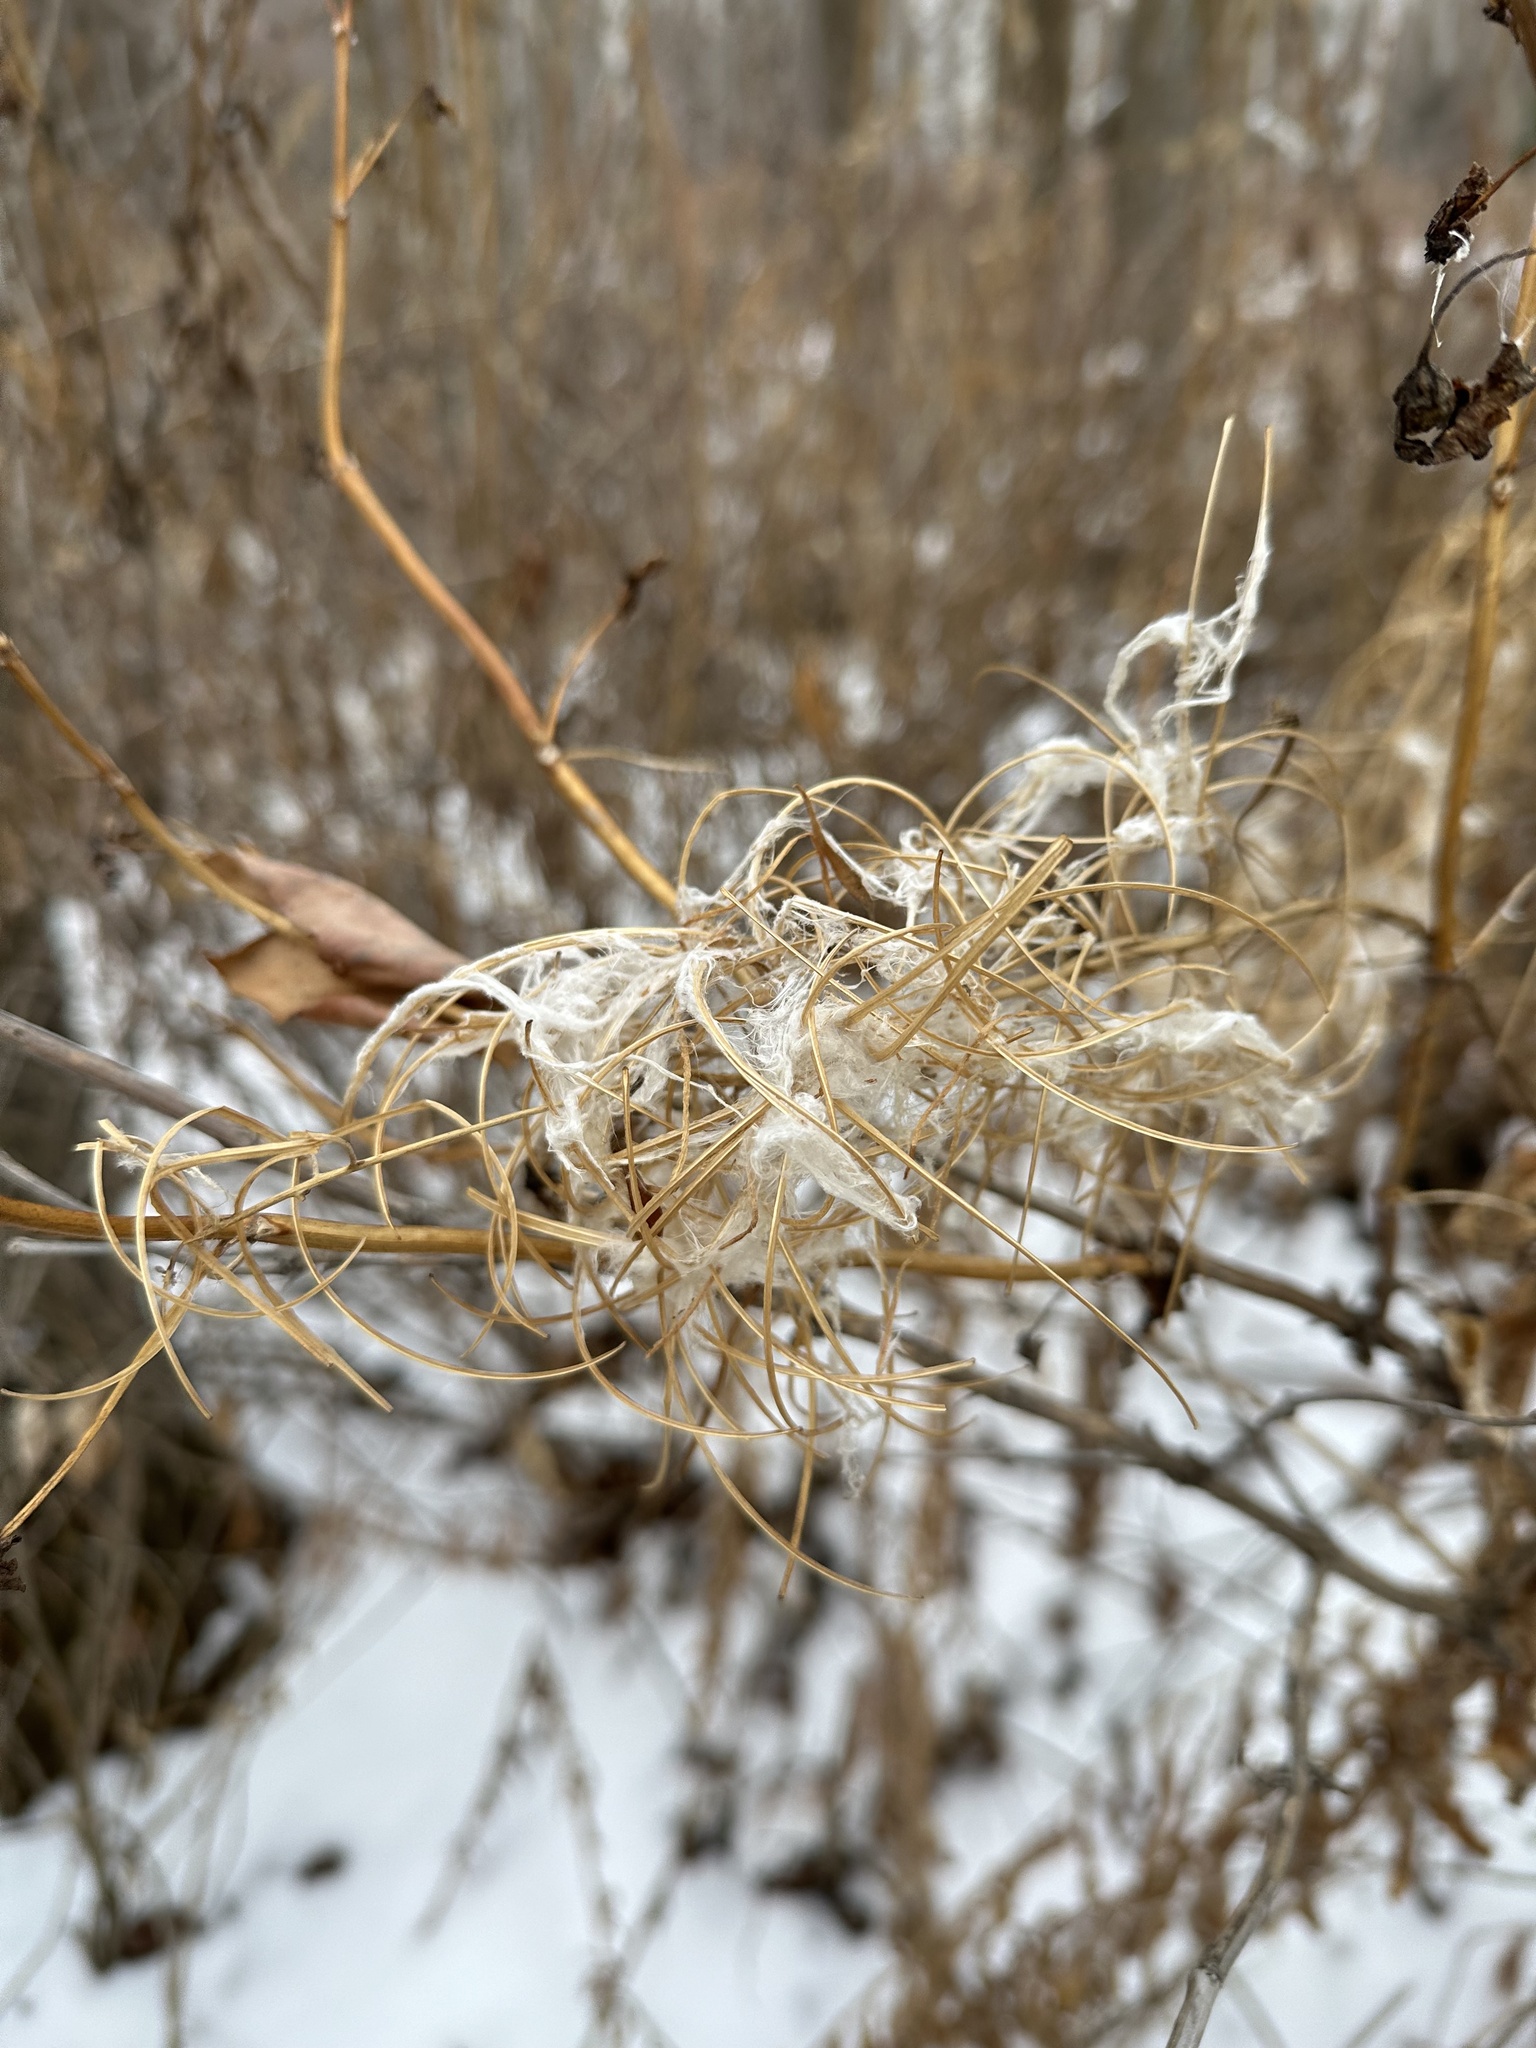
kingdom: Plantae
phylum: Tracheophyta
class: Magnoliopsida
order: Myrtales
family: Onagraceae
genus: Chamaenerion
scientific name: Chamaenerion angustifolium
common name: Fireweed
